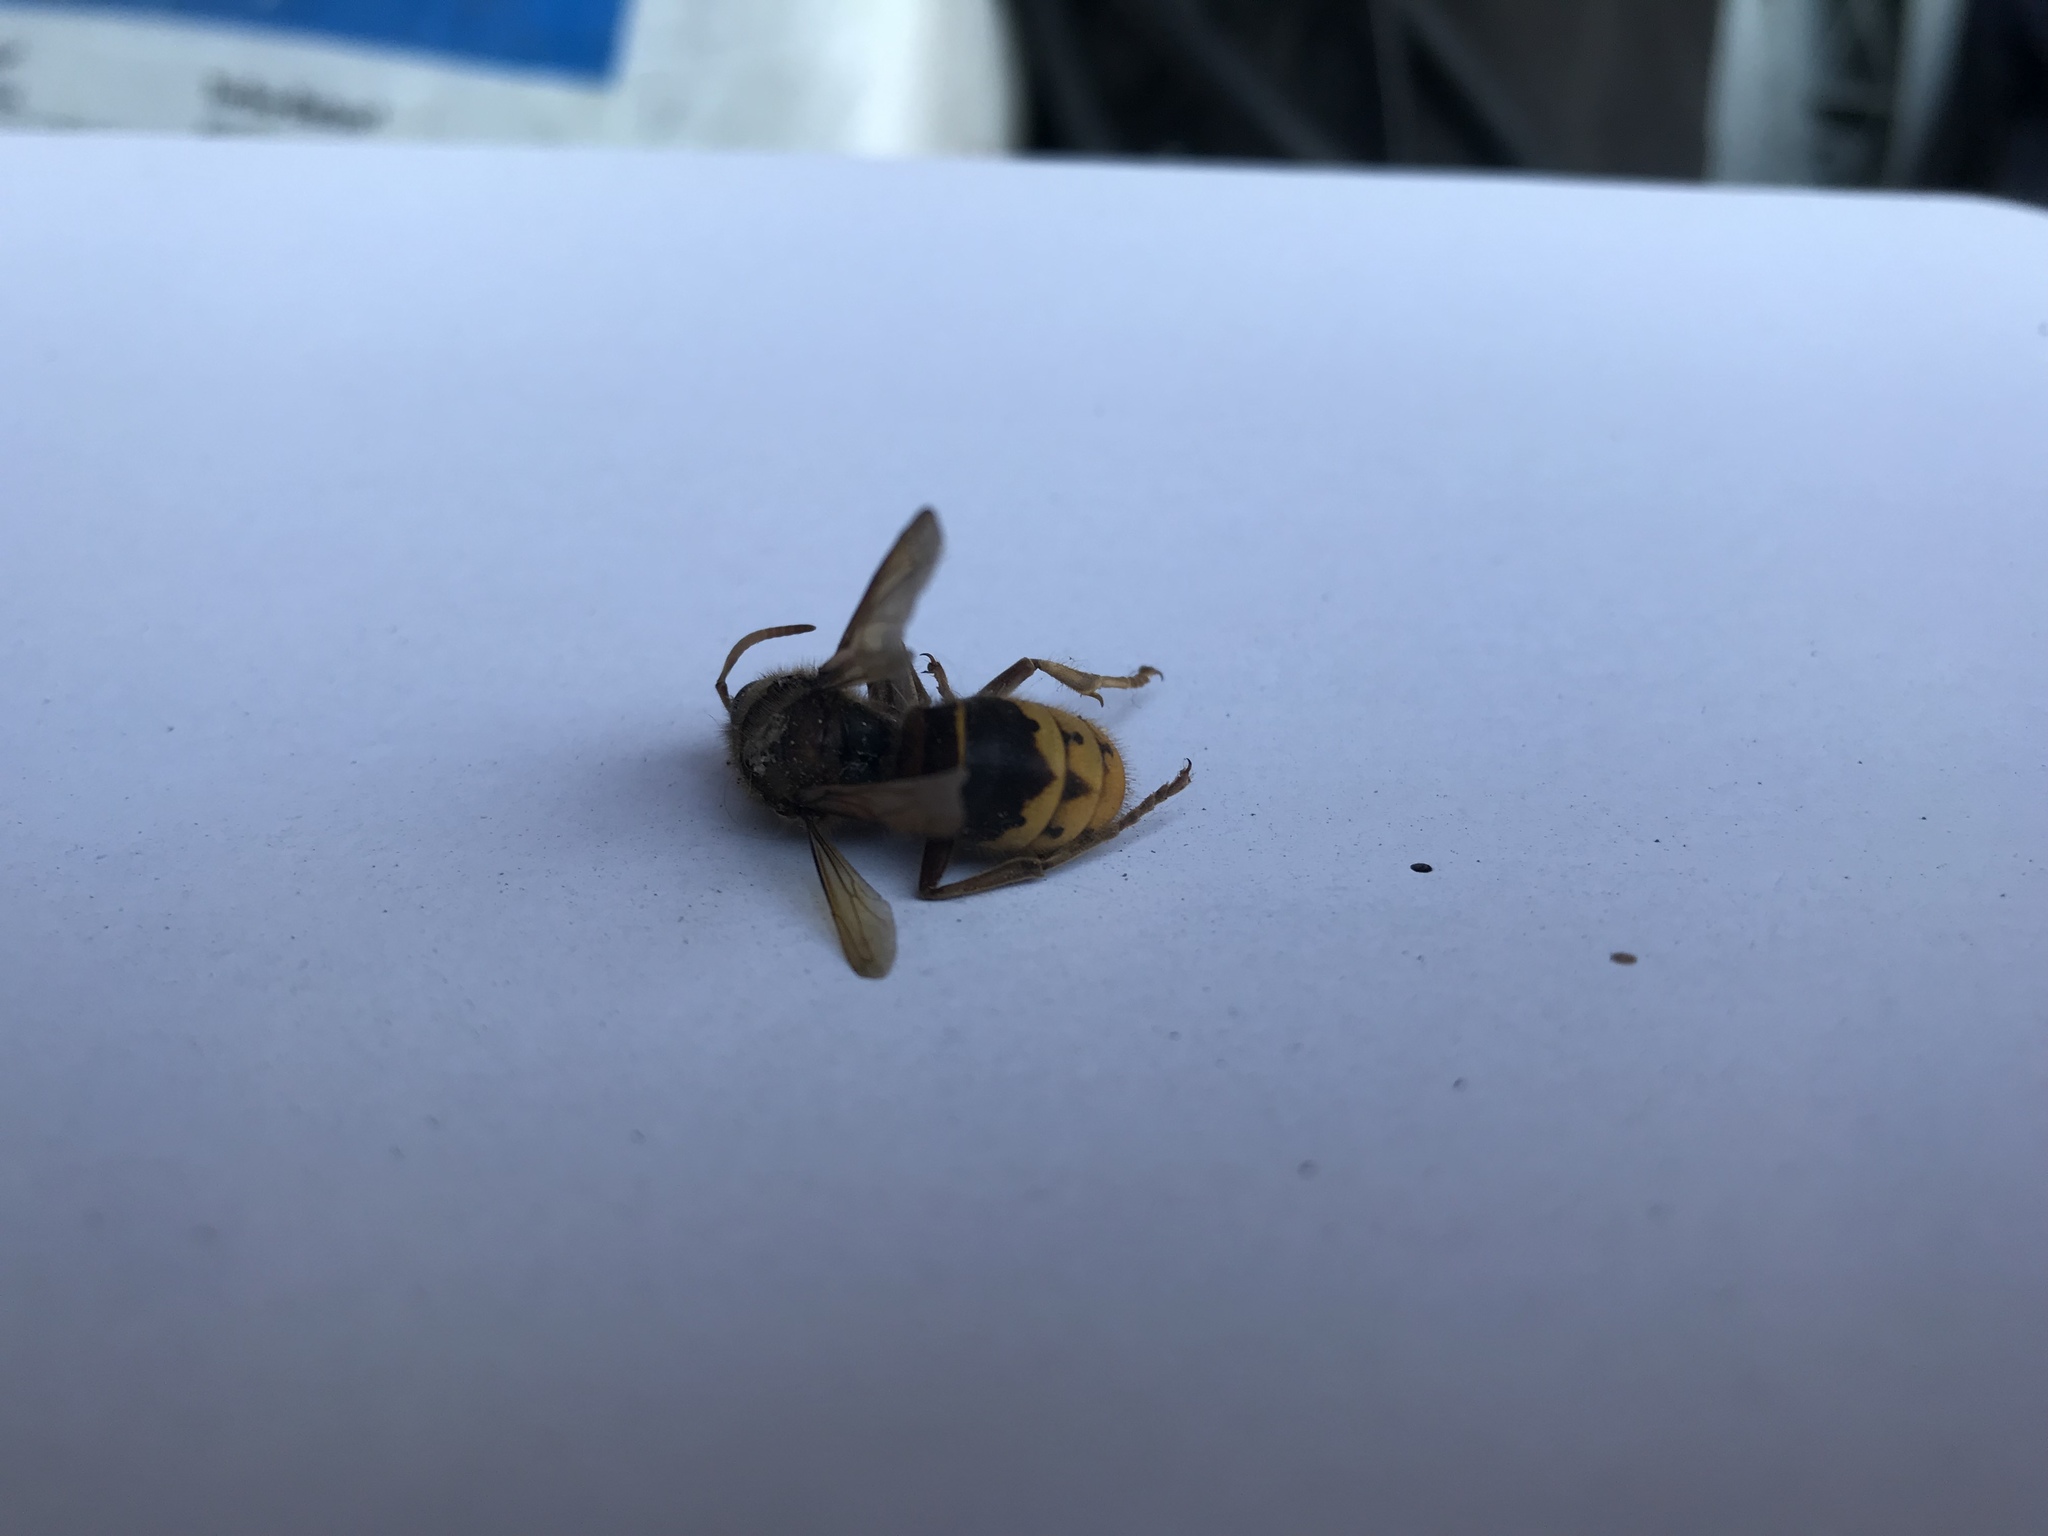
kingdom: Animalia
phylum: Arthropoda
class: Insecta
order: Hymenoptera
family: Vespidae
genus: Vespa
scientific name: Vespa crabro
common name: Hornet
